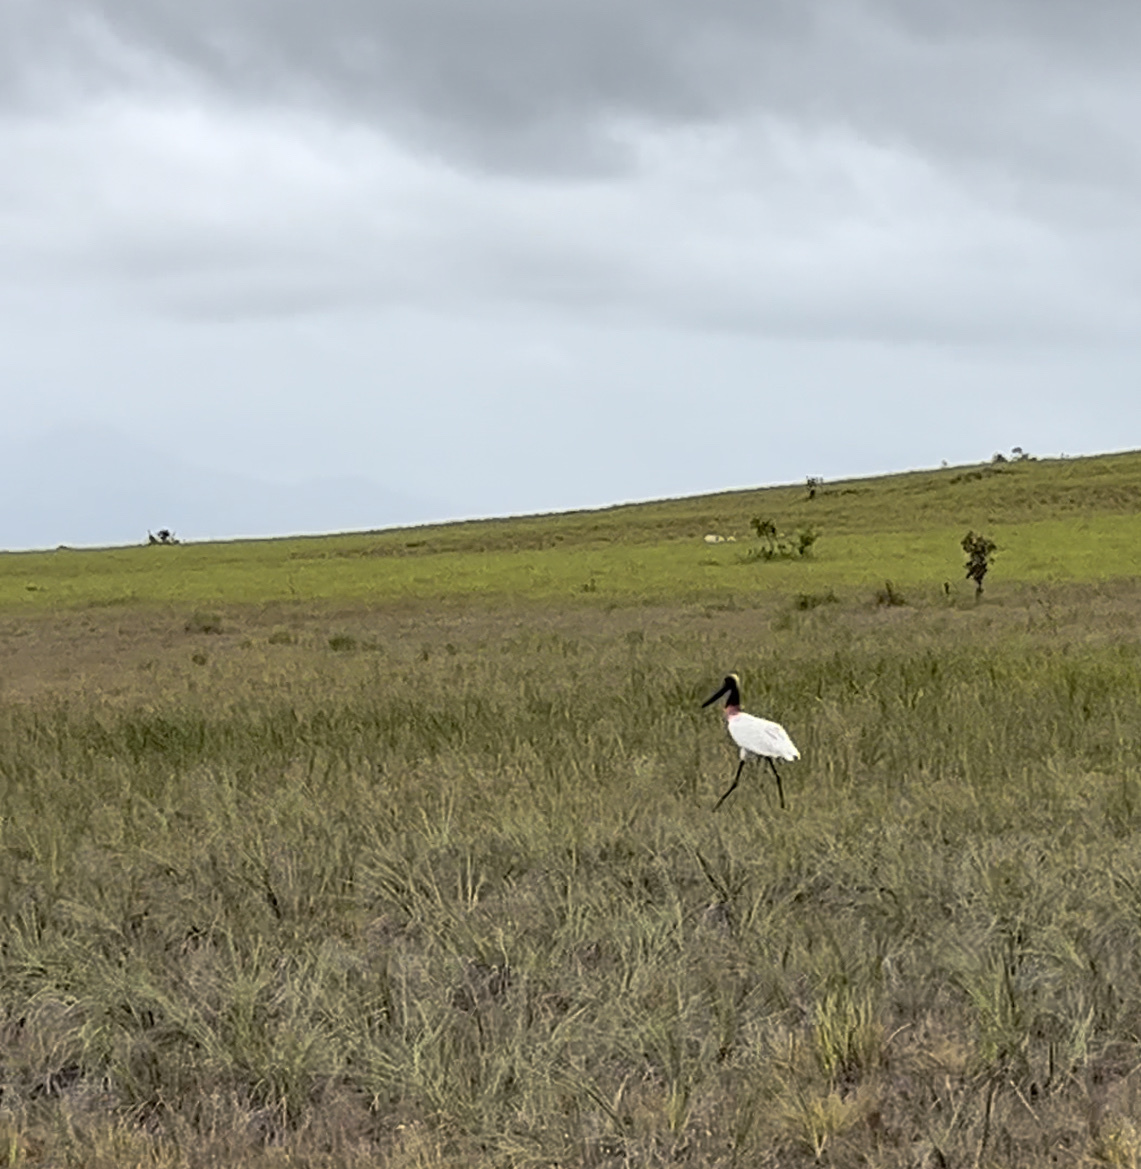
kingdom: Animalia
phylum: Chordata
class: Aves
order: Ciconiiformes
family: Ciconiidae
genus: Jabiru
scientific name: Jabiru mycteria
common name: Jabiru
